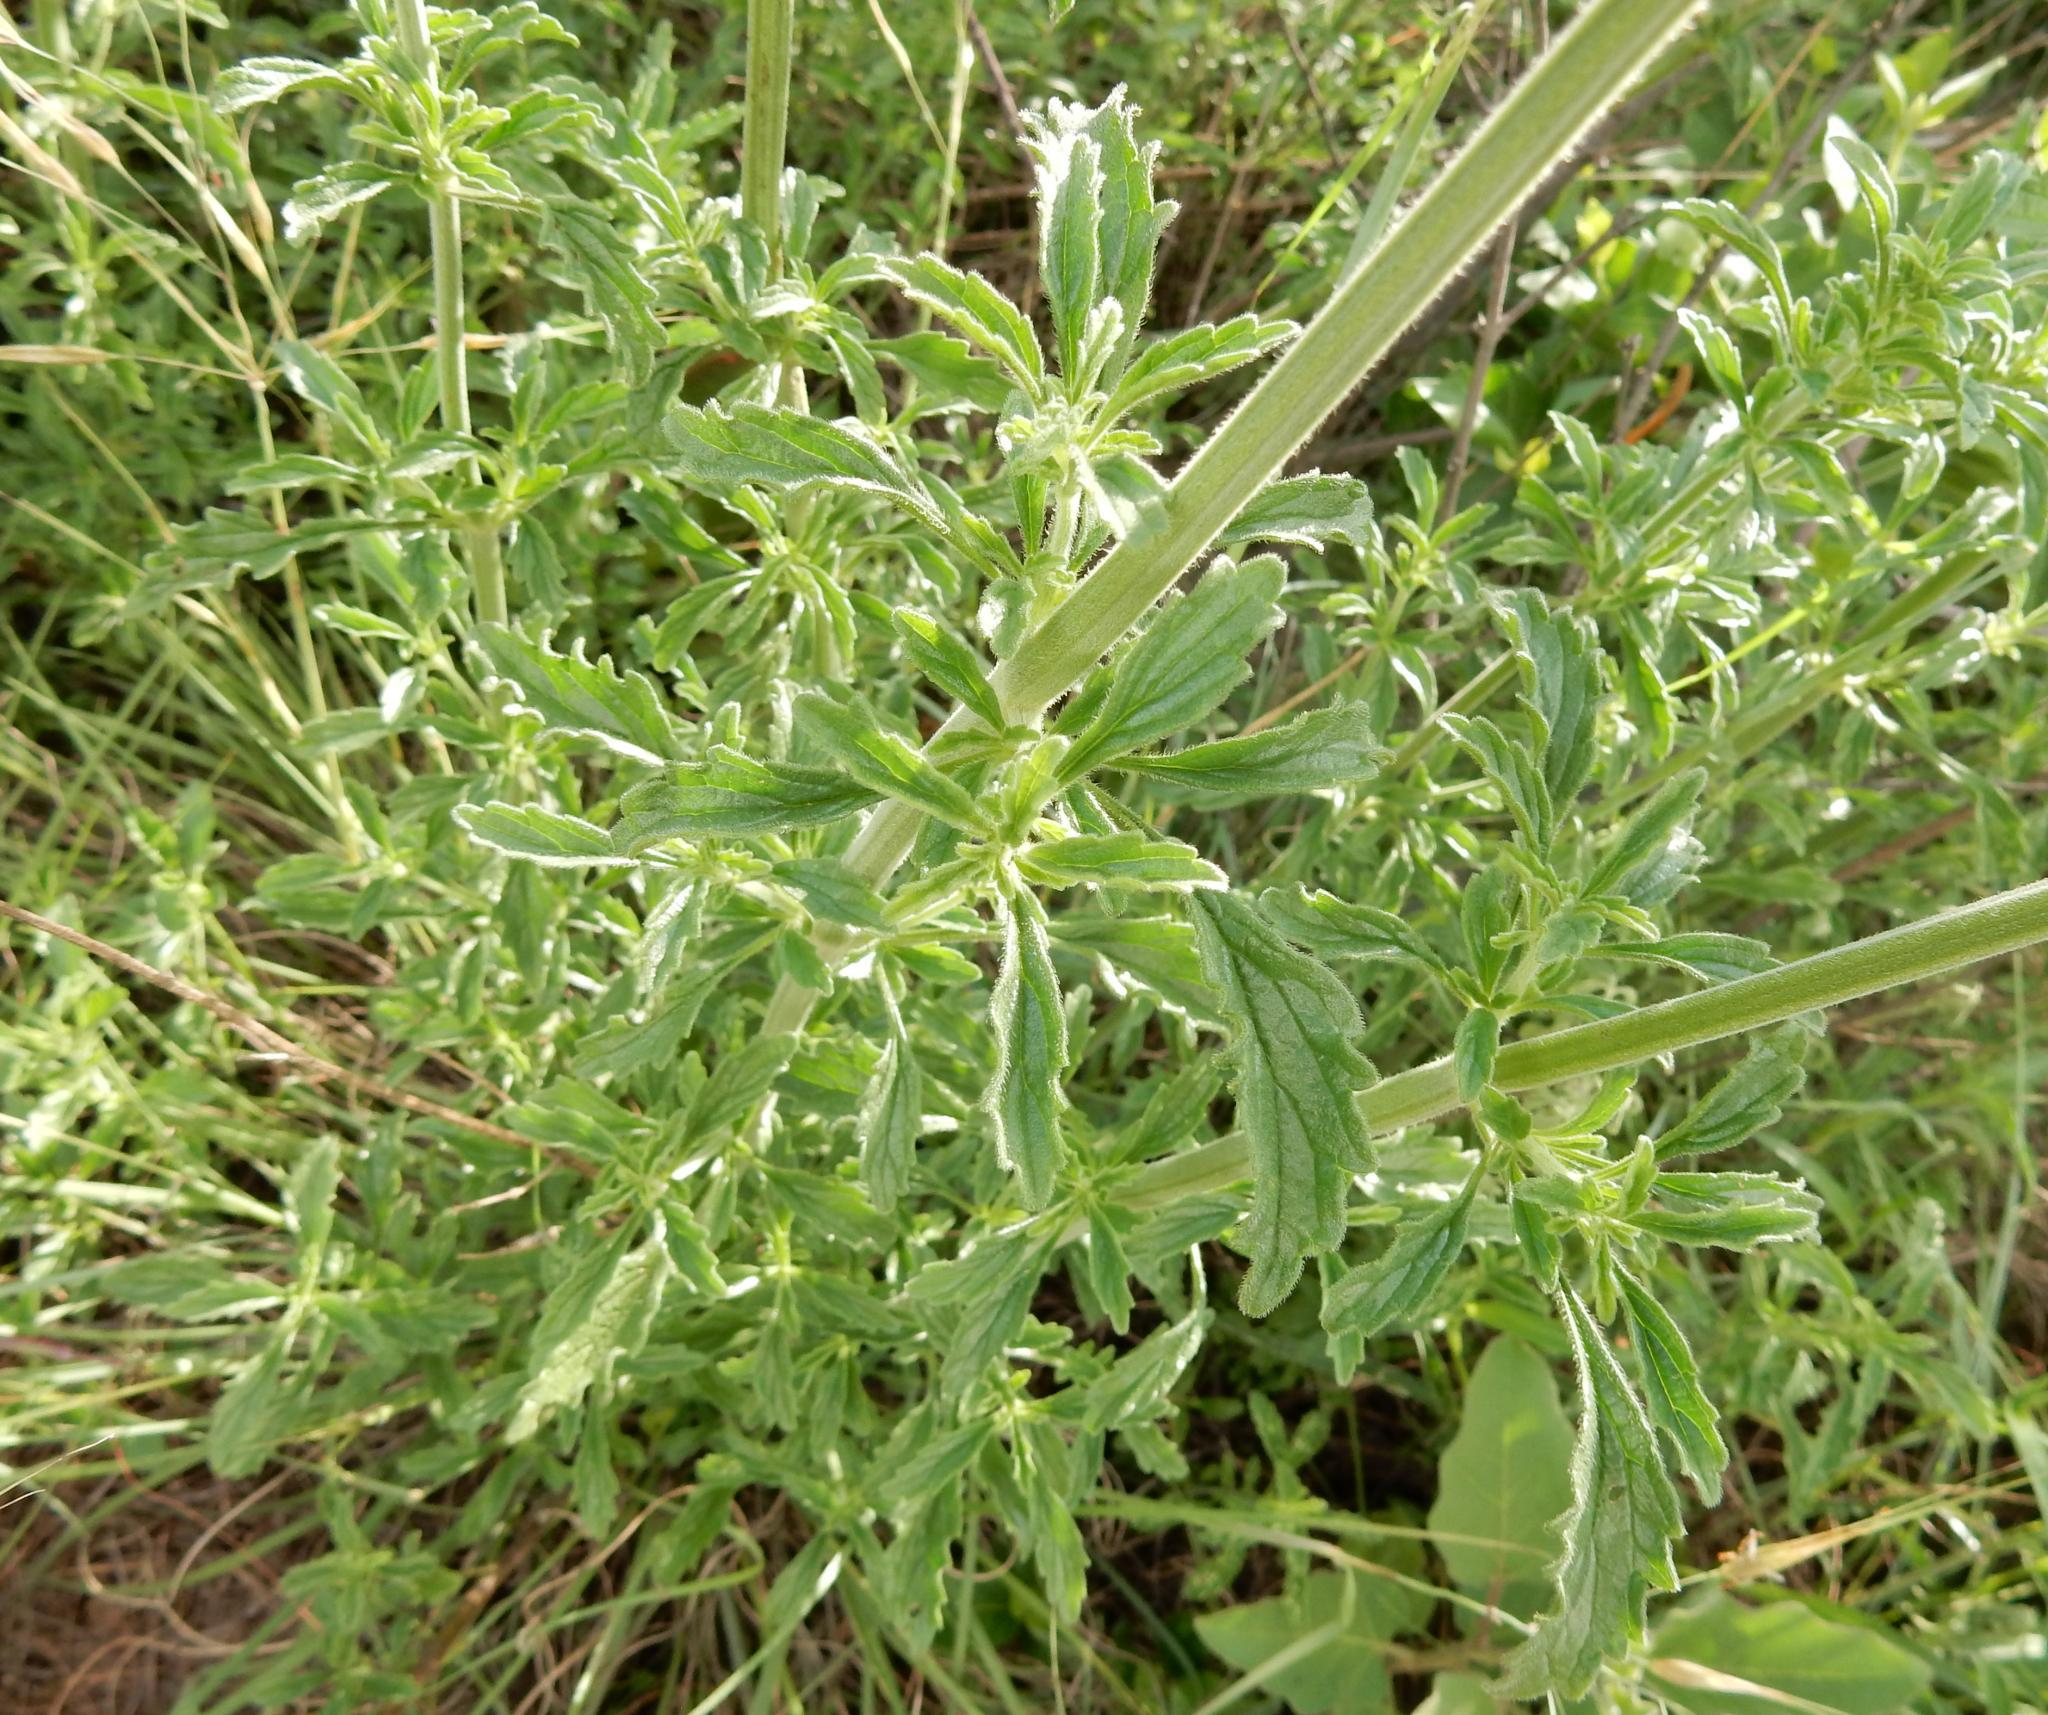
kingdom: Plantae
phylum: Tracheophyta
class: Magnoliopsida
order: Lamiales
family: Lamiaceae
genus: Leonotis
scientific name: Leonotis ocymifolia
